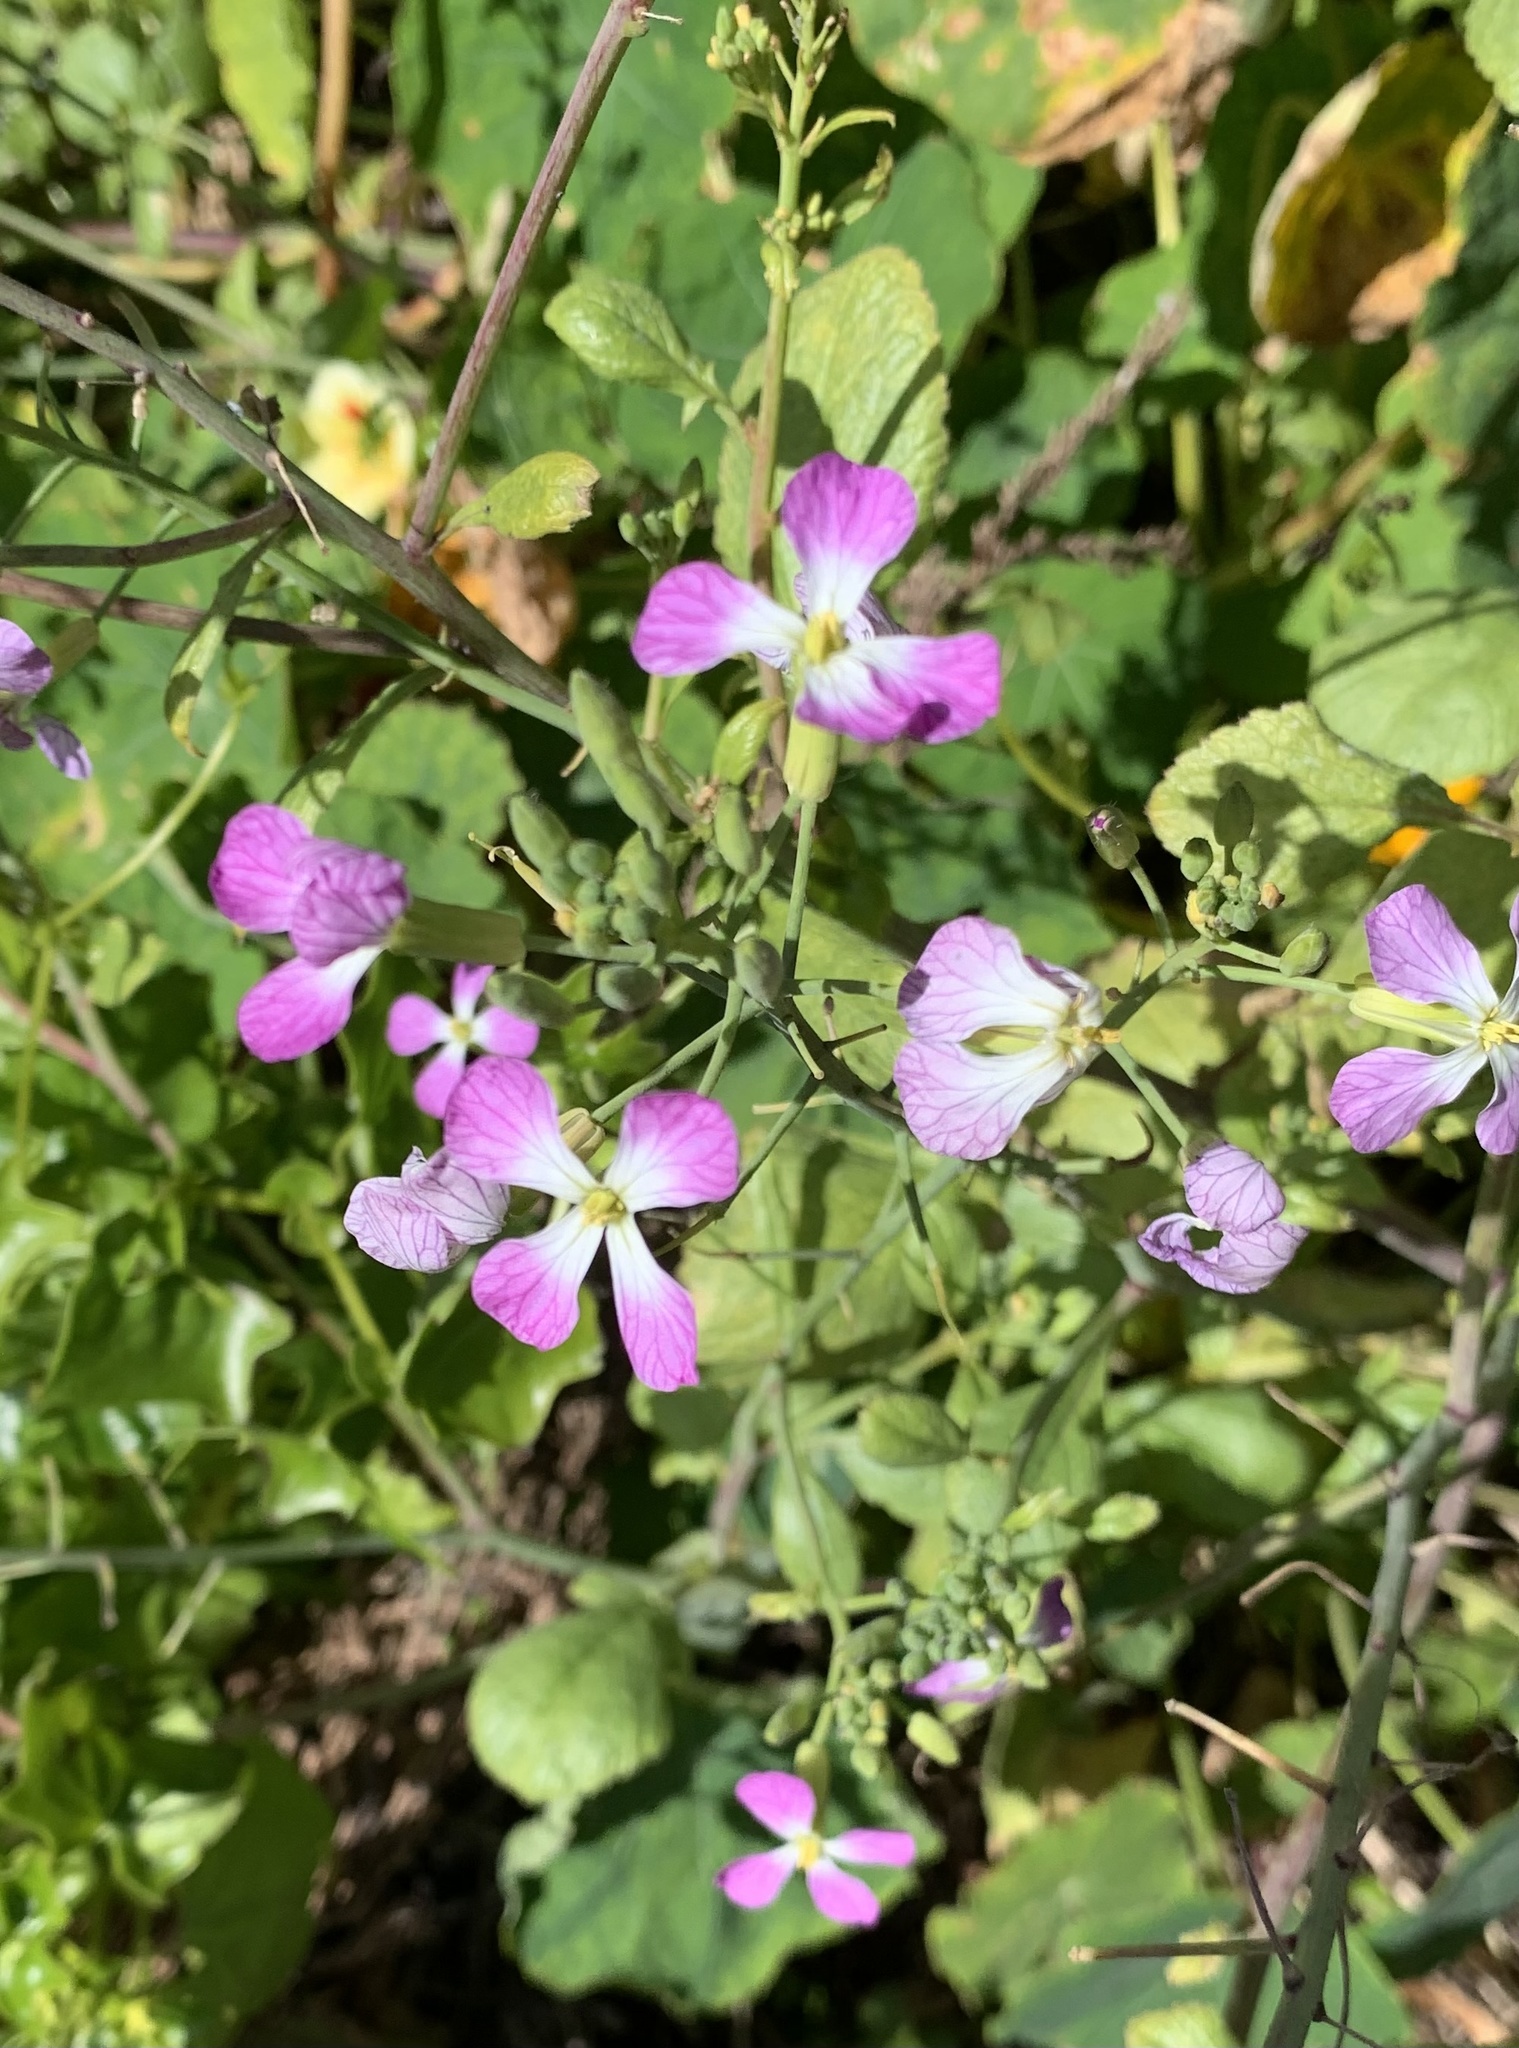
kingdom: Plantae
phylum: Tracheophyta
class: Magnoliopsida
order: Brassicales
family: Brassicaceae
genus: Raphanus
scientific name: Raphanus sativus
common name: Cultivated radish
